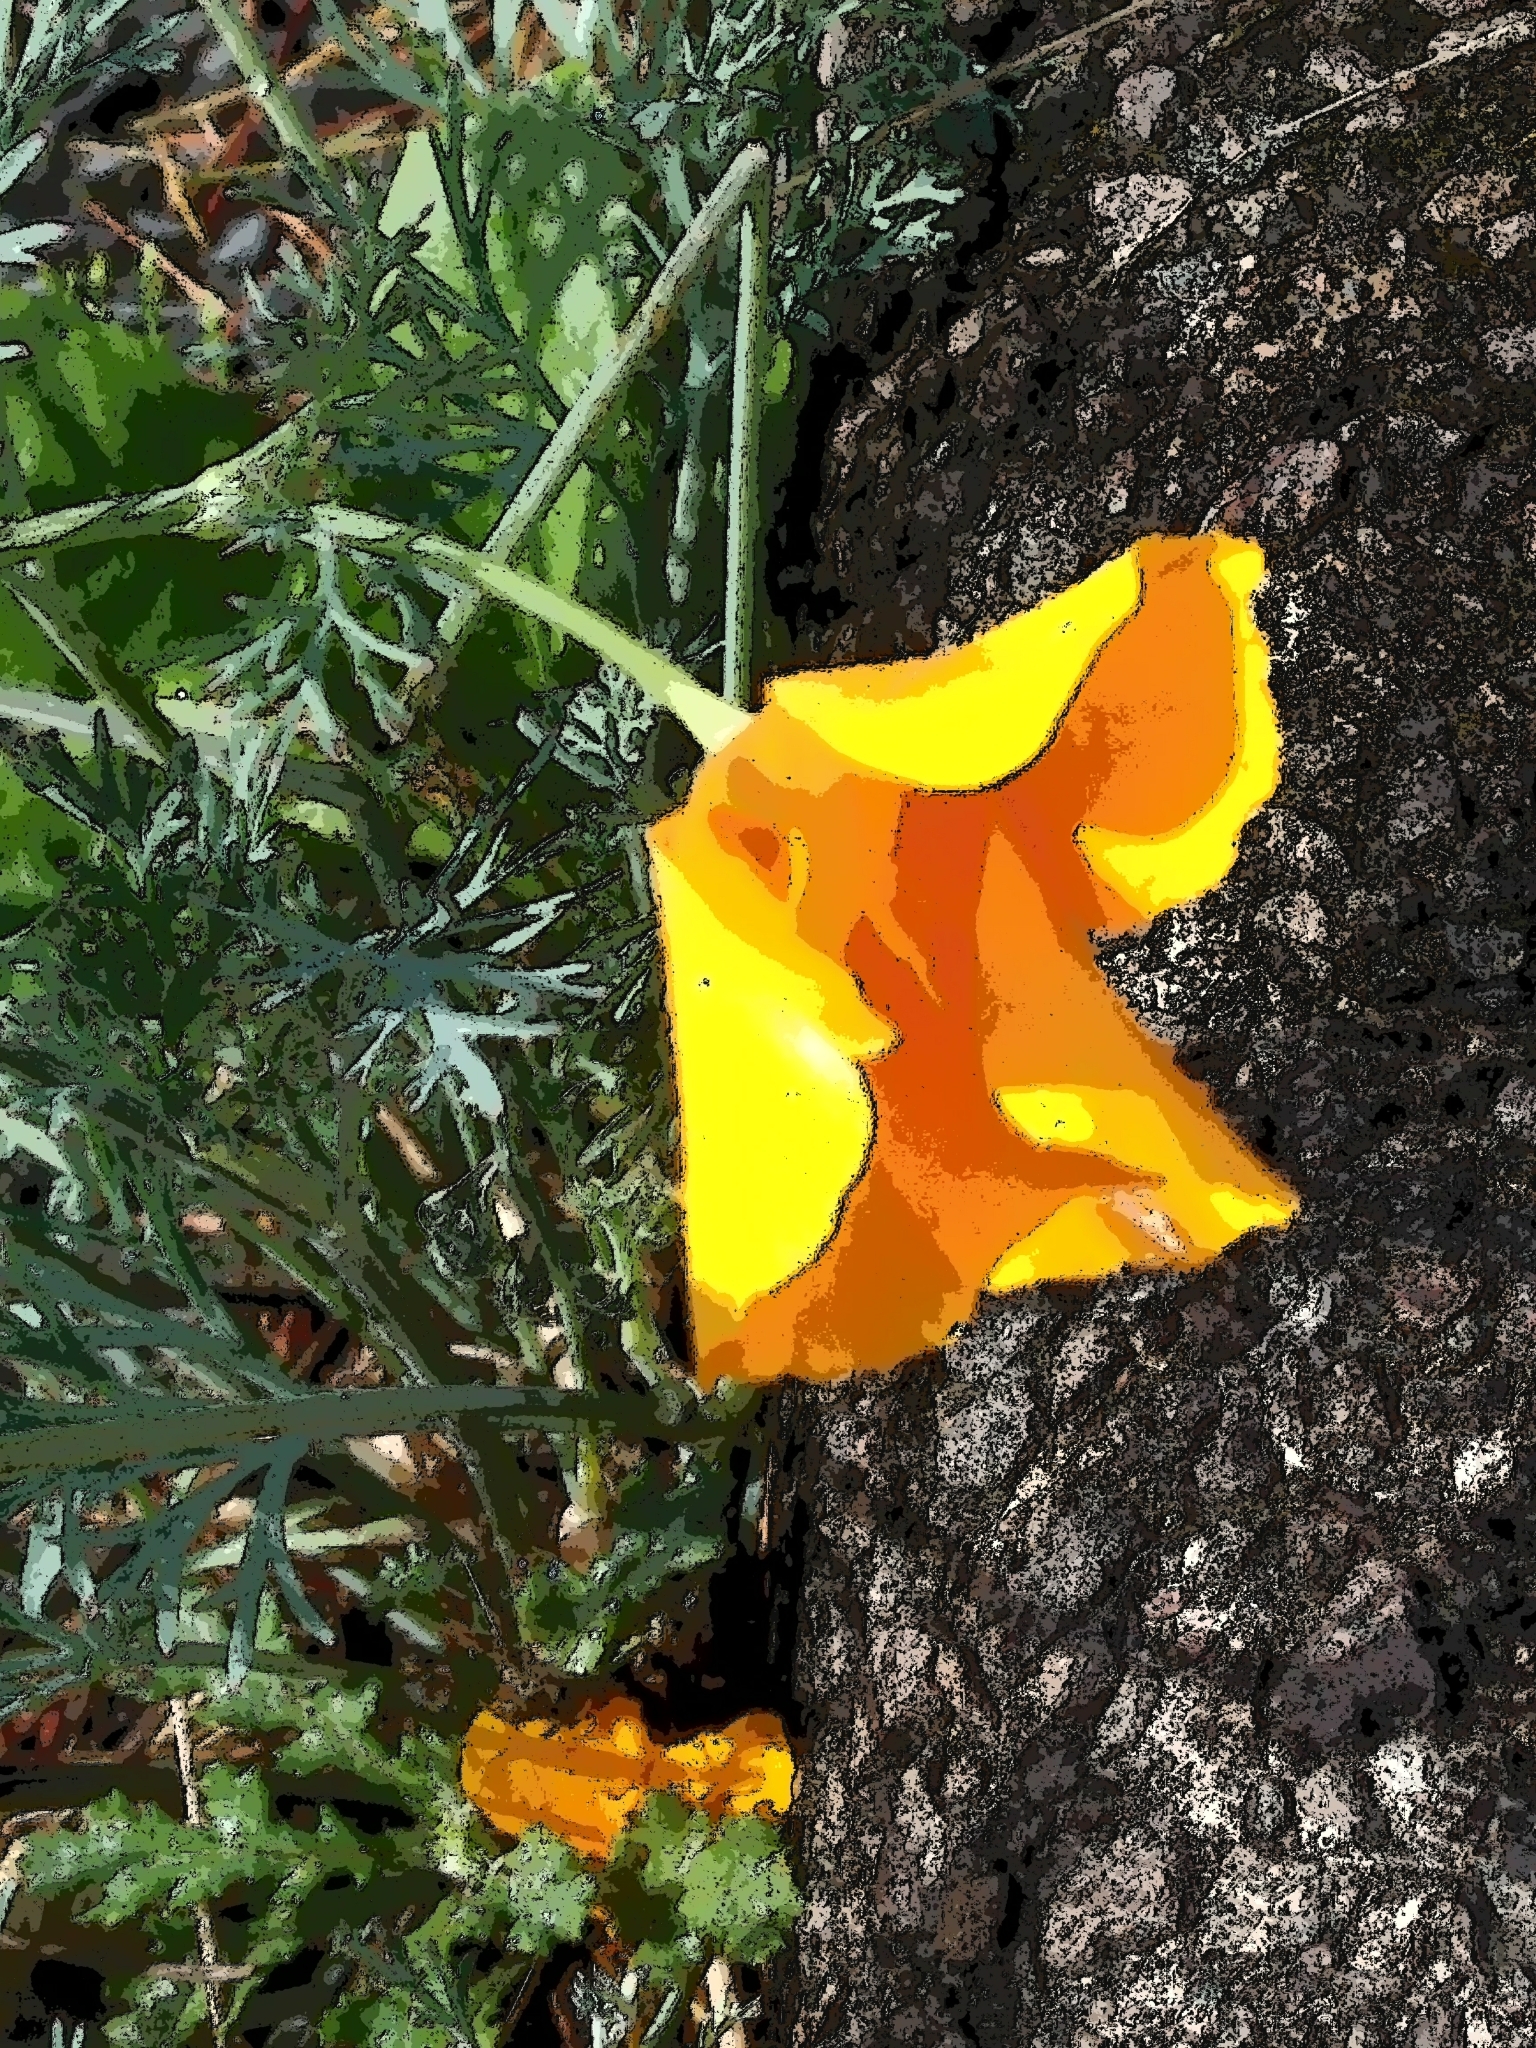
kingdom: Plantae
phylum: Tracheophyta
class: Magnoliopsida
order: Ranunculales
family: Papaveraceae
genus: Eschscholzia
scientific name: Eschscholzia californica
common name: California poppy
